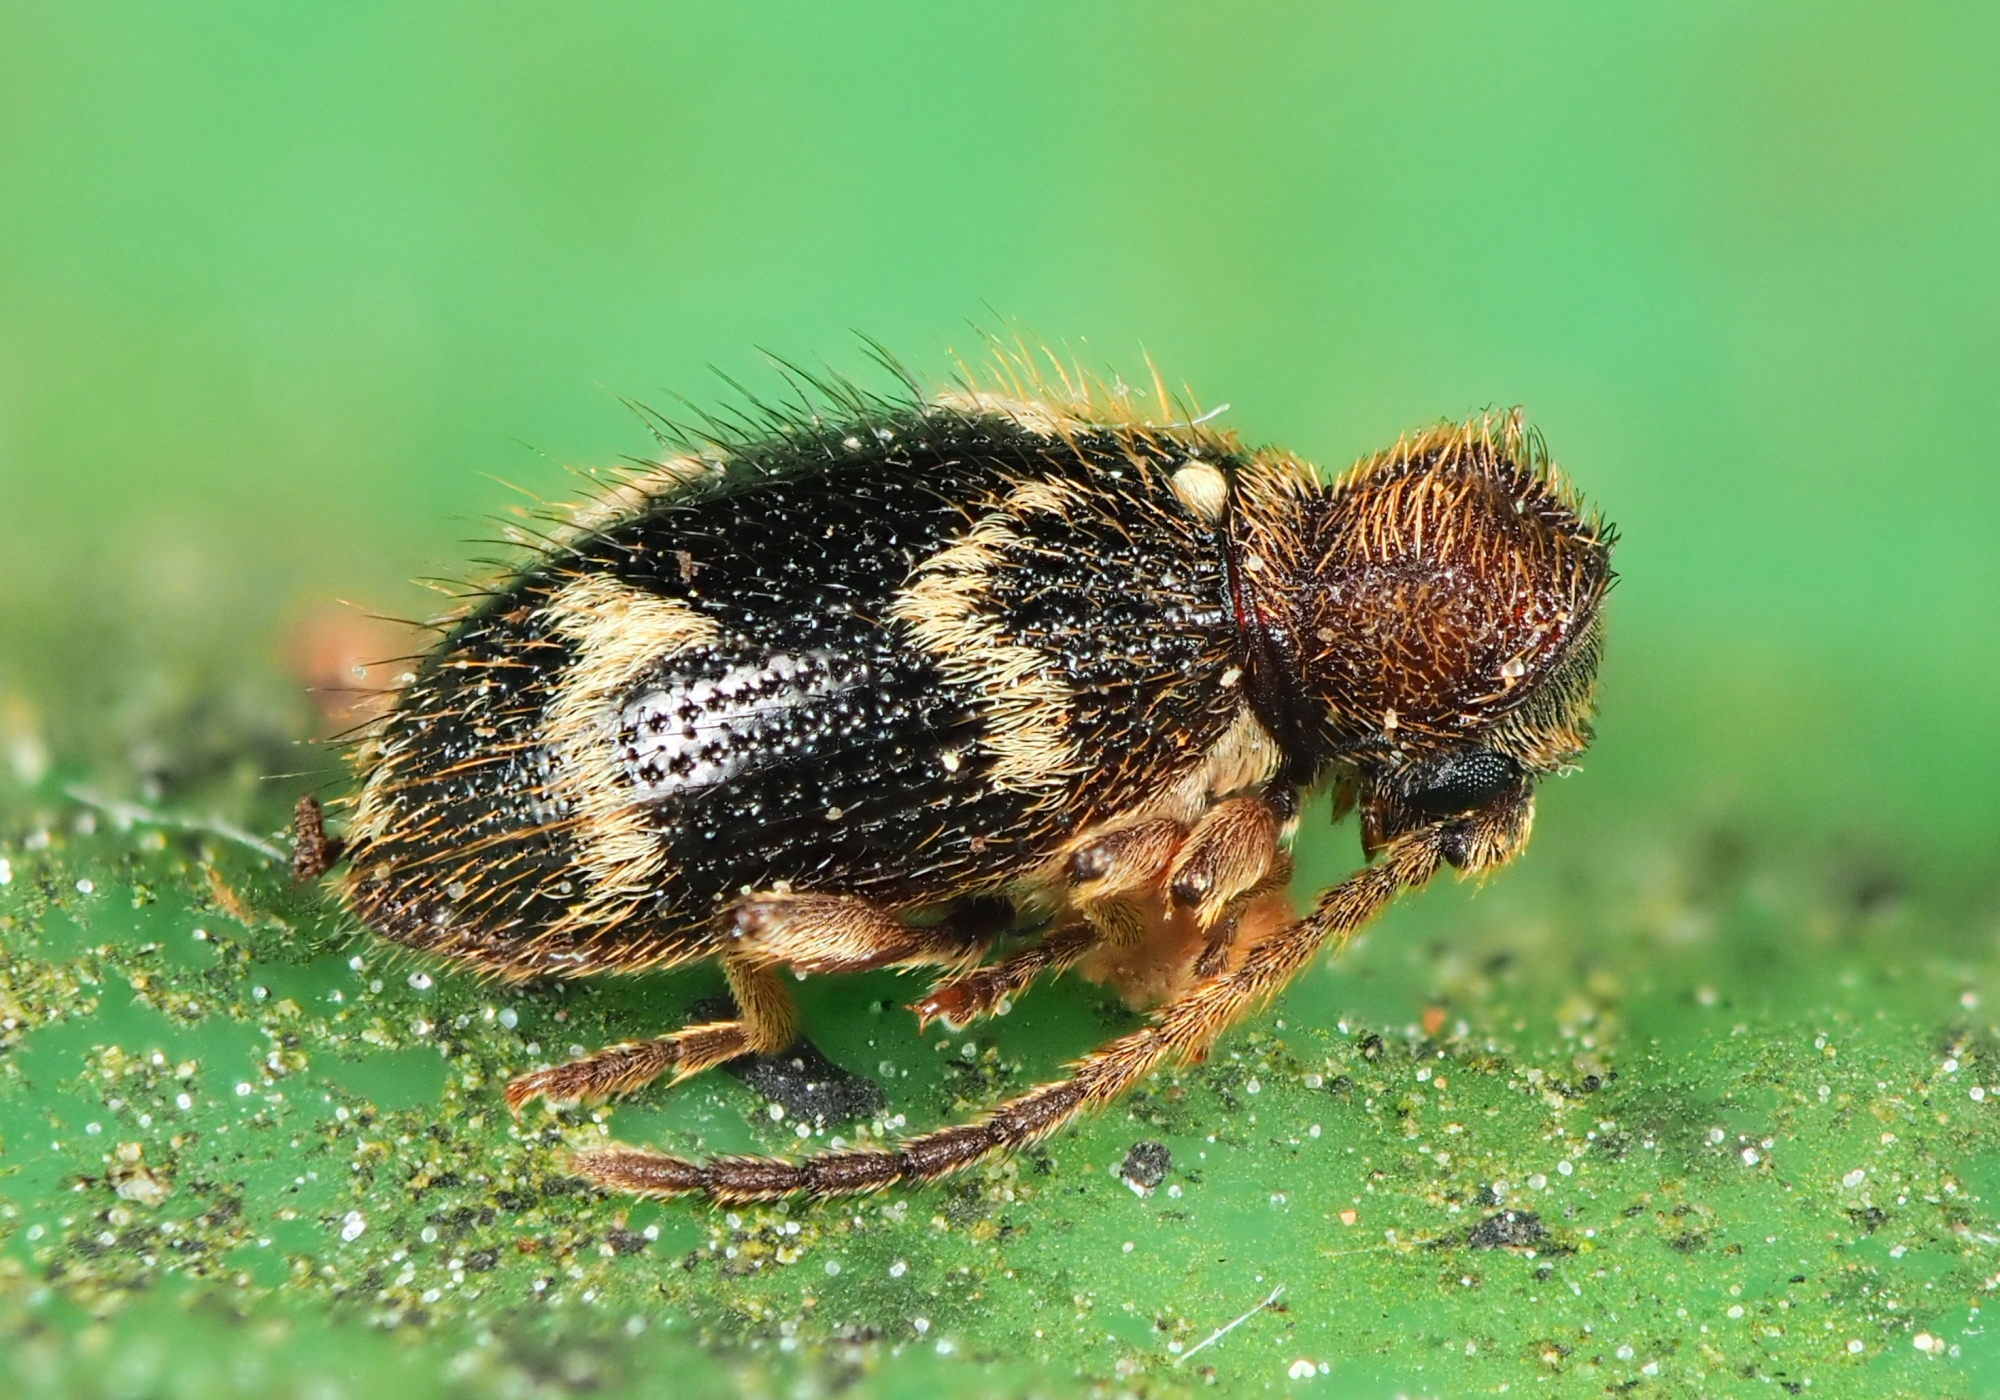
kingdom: Animalia
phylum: Arthropoda
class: Insecta
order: Coleoptera
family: Ptinidae
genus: Ptinus
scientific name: Ptinus rufipes
